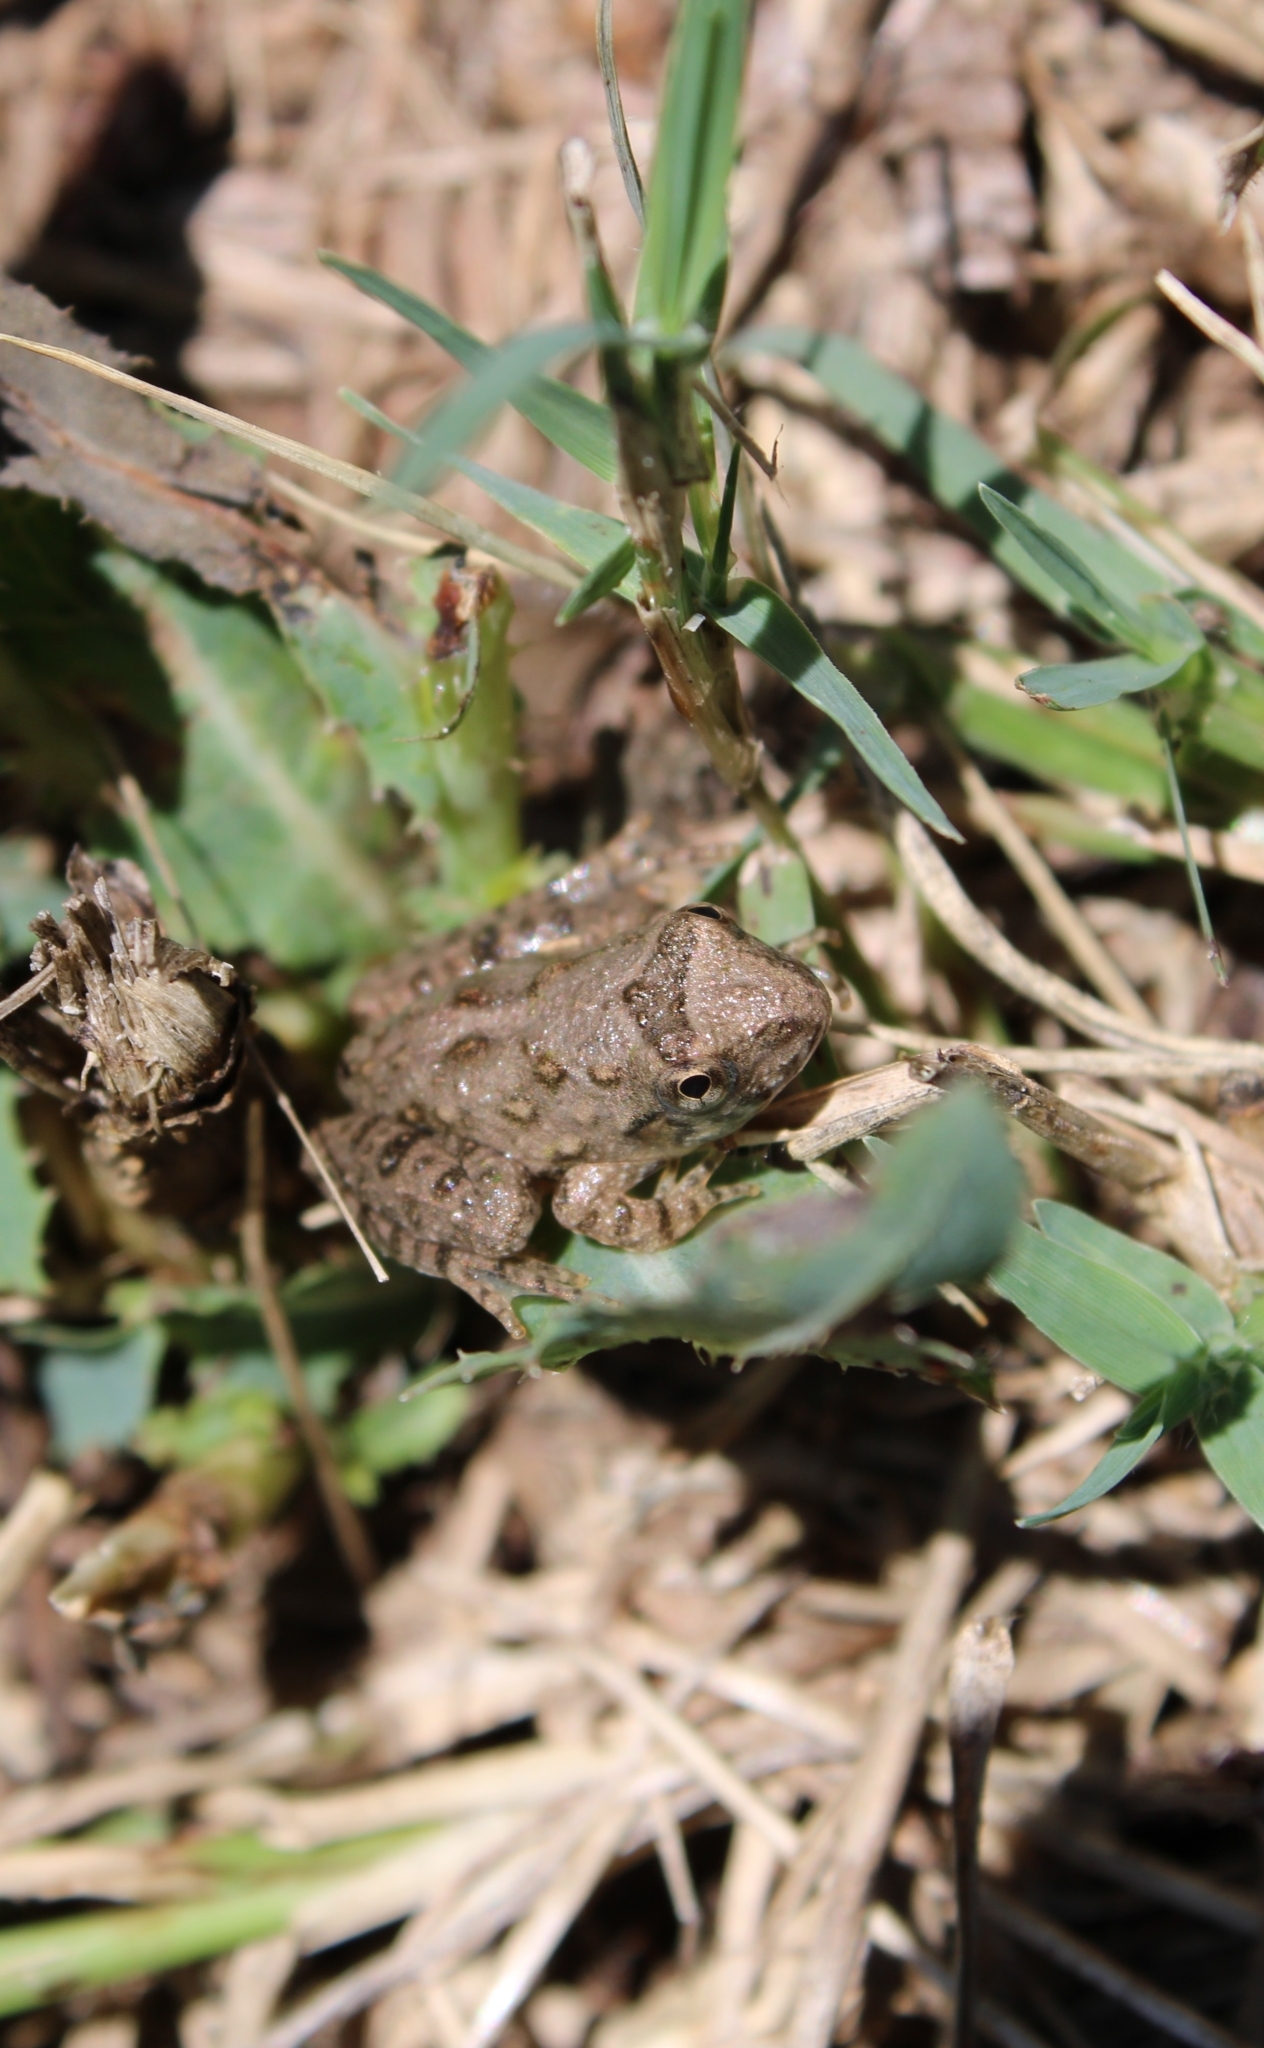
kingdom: Animalia
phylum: Chordata
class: Amphibia
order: Anura
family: Hylidae
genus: Acris
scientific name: Acris blanchardi
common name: Blanchard's cricket frog
